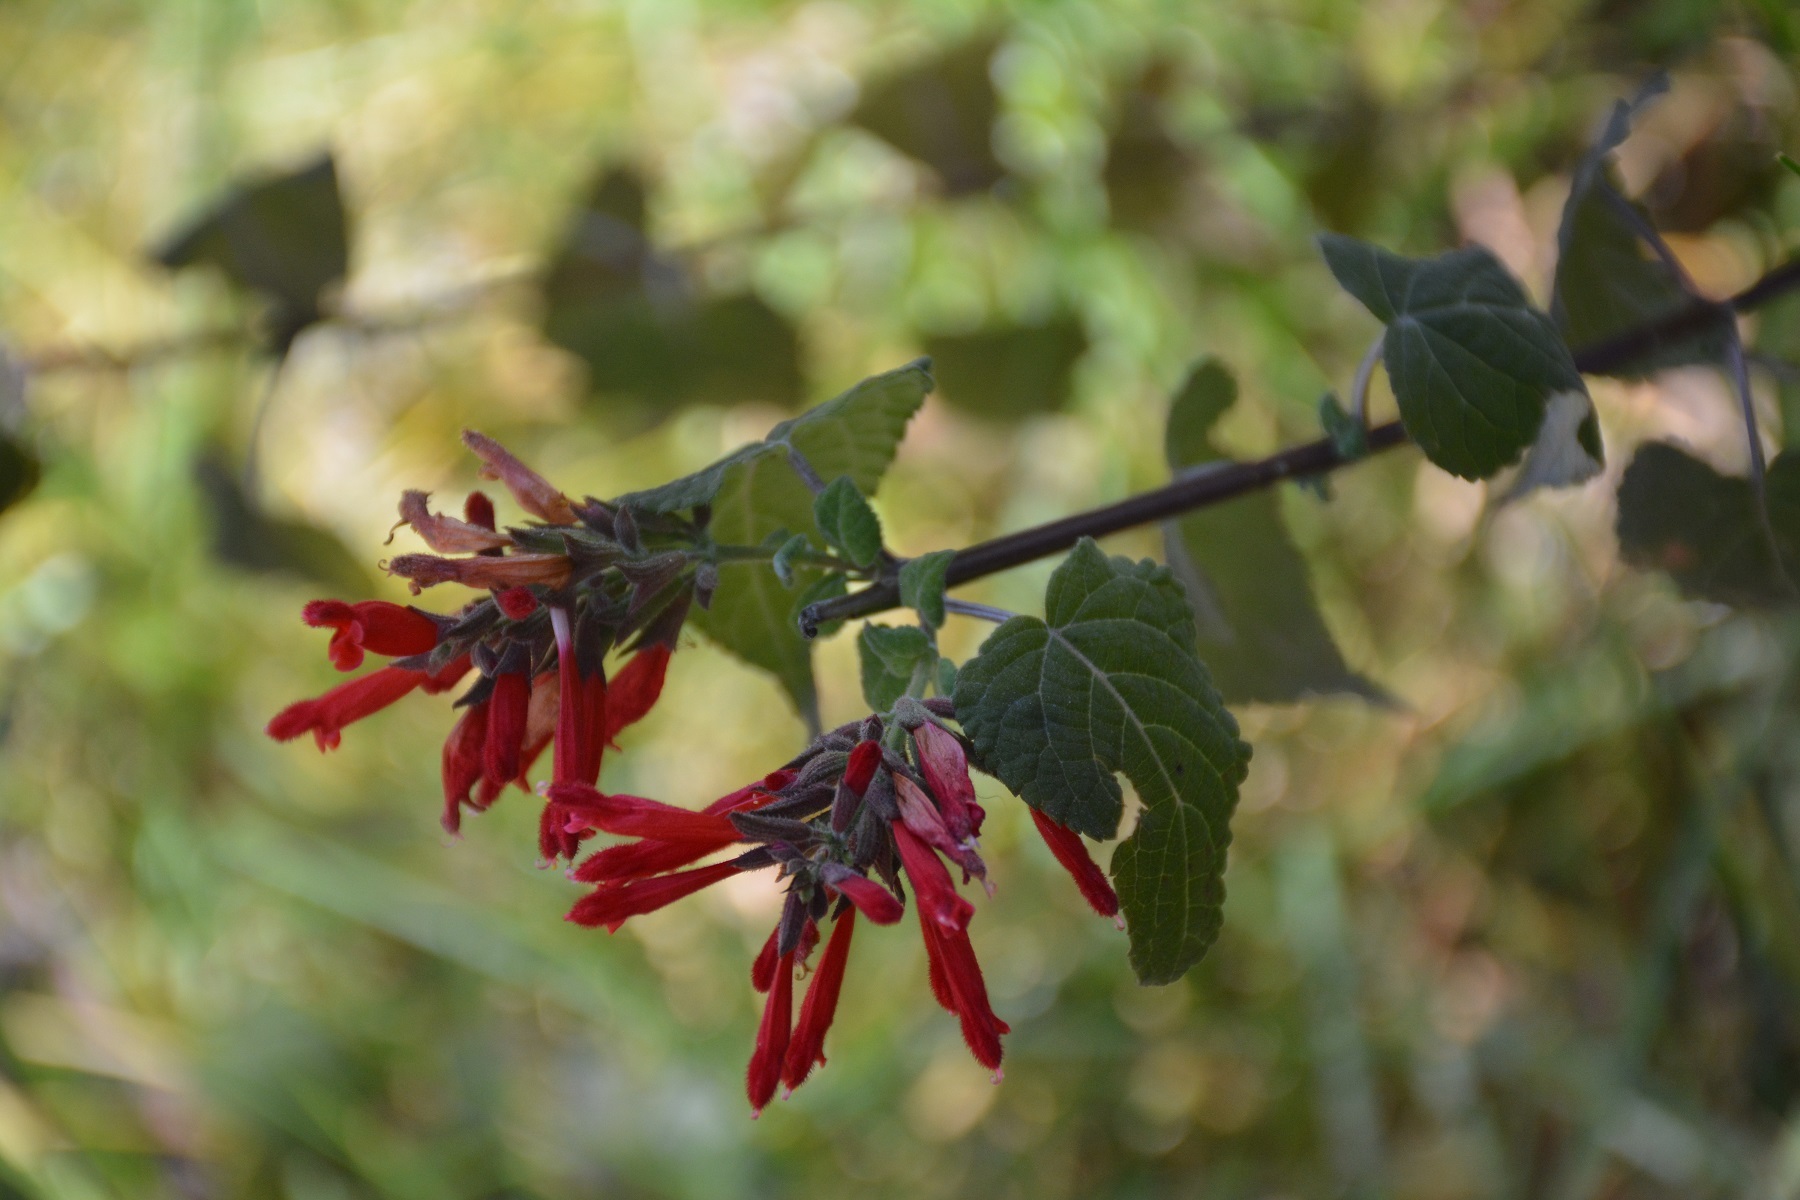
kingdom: Plantae
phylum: Tracheophyta
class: Magnoliopsida
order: Lamiales
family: Lamiaceae
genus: Salvia
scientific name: Salvia holwayi
